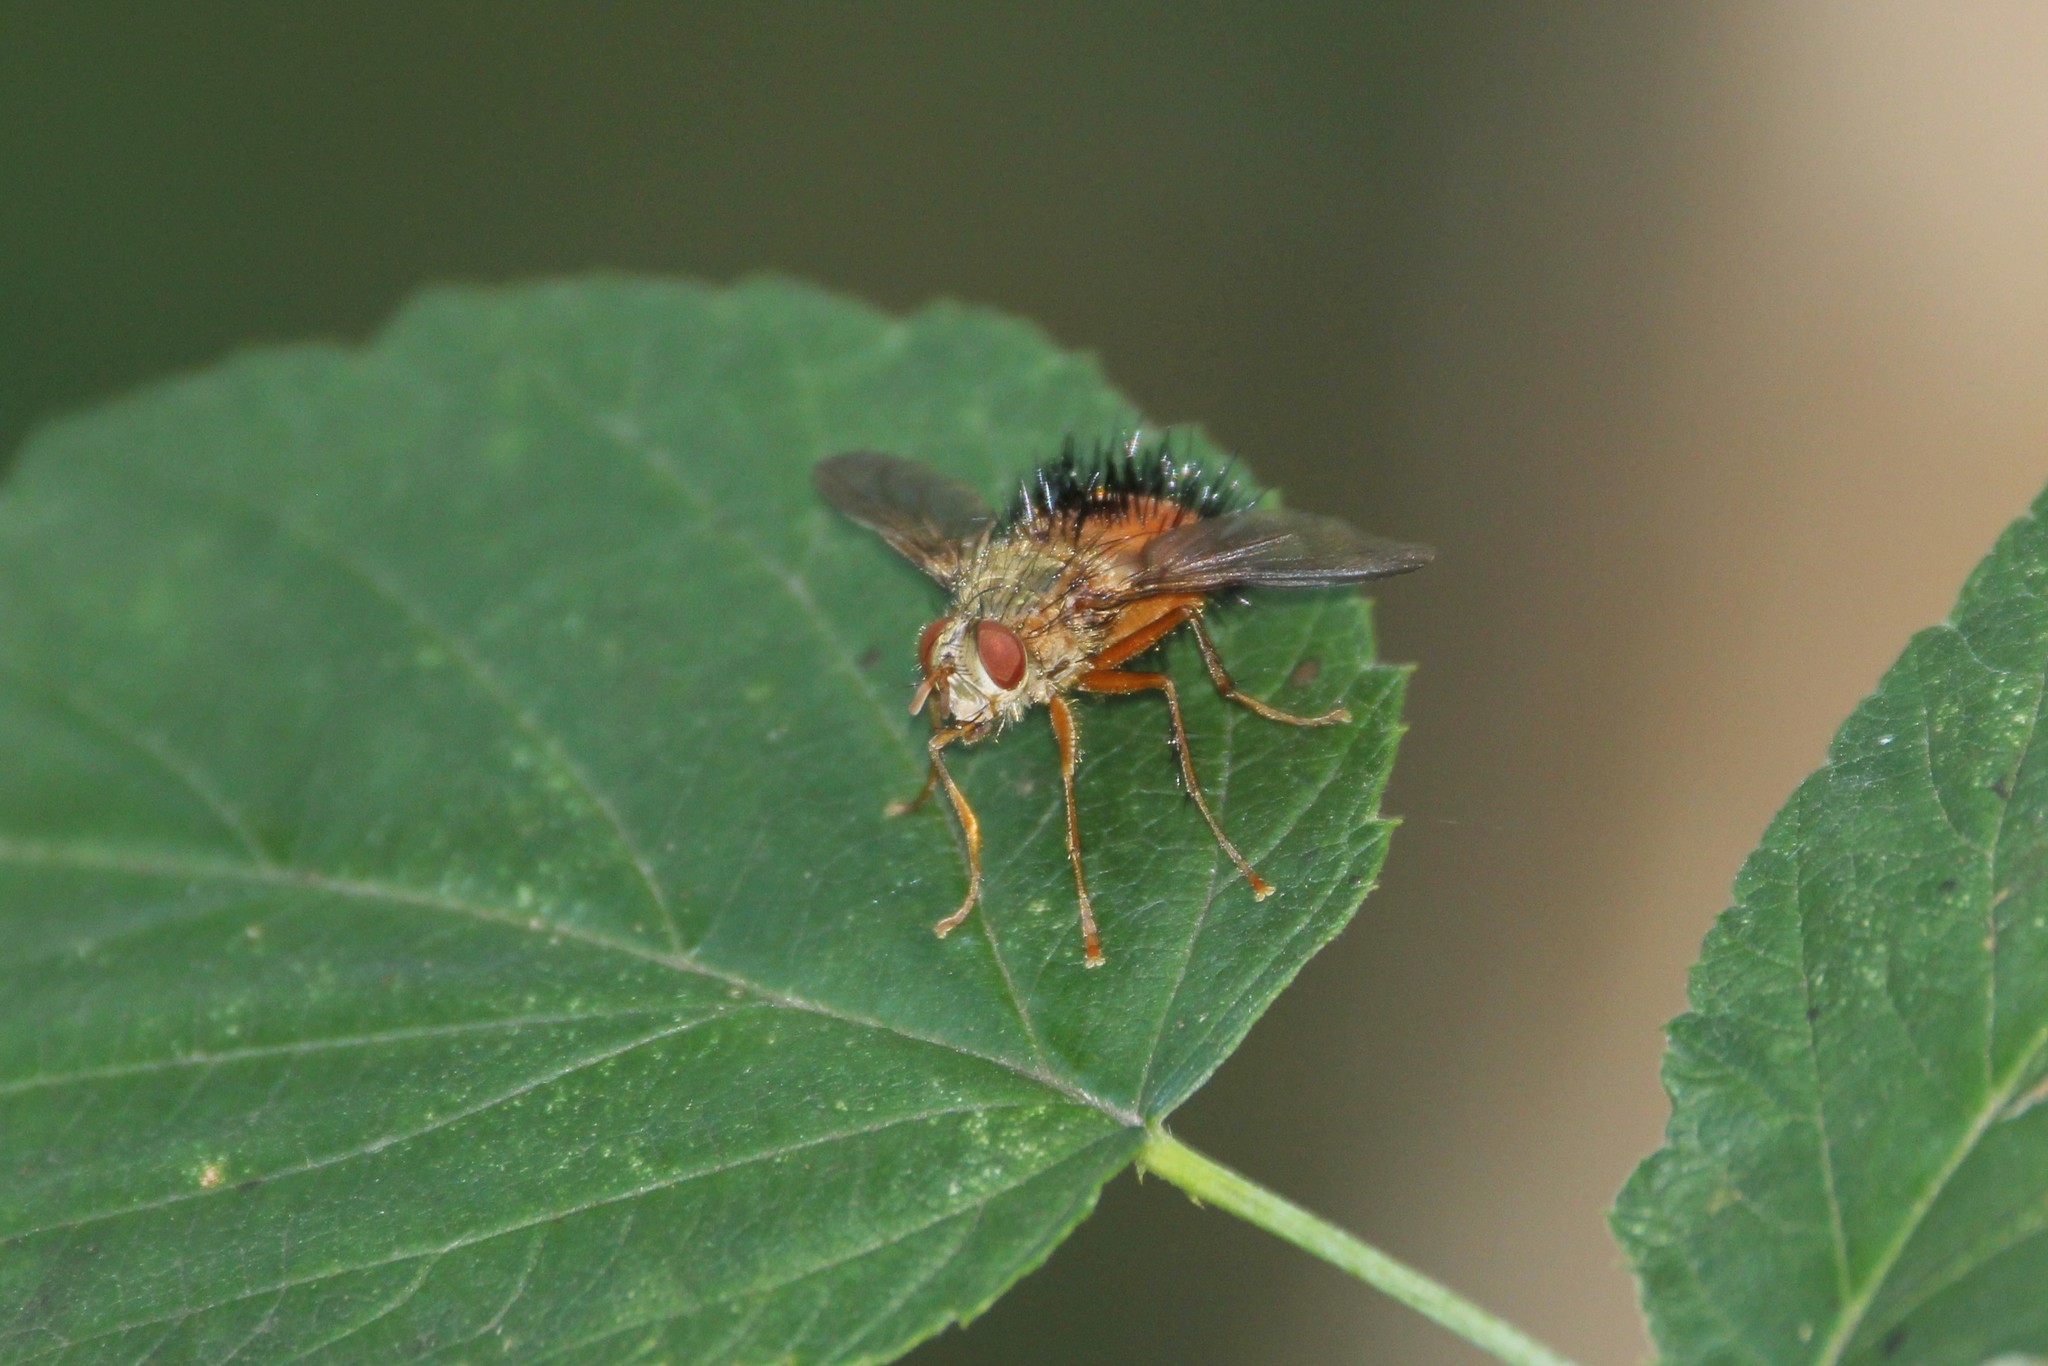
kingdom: Animalia
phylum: Arthropoda
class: Insecta
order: Diptera
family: Tachinidae
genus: Hystricia
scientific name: Hystricia abrupta
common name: Tomato bristle fly
